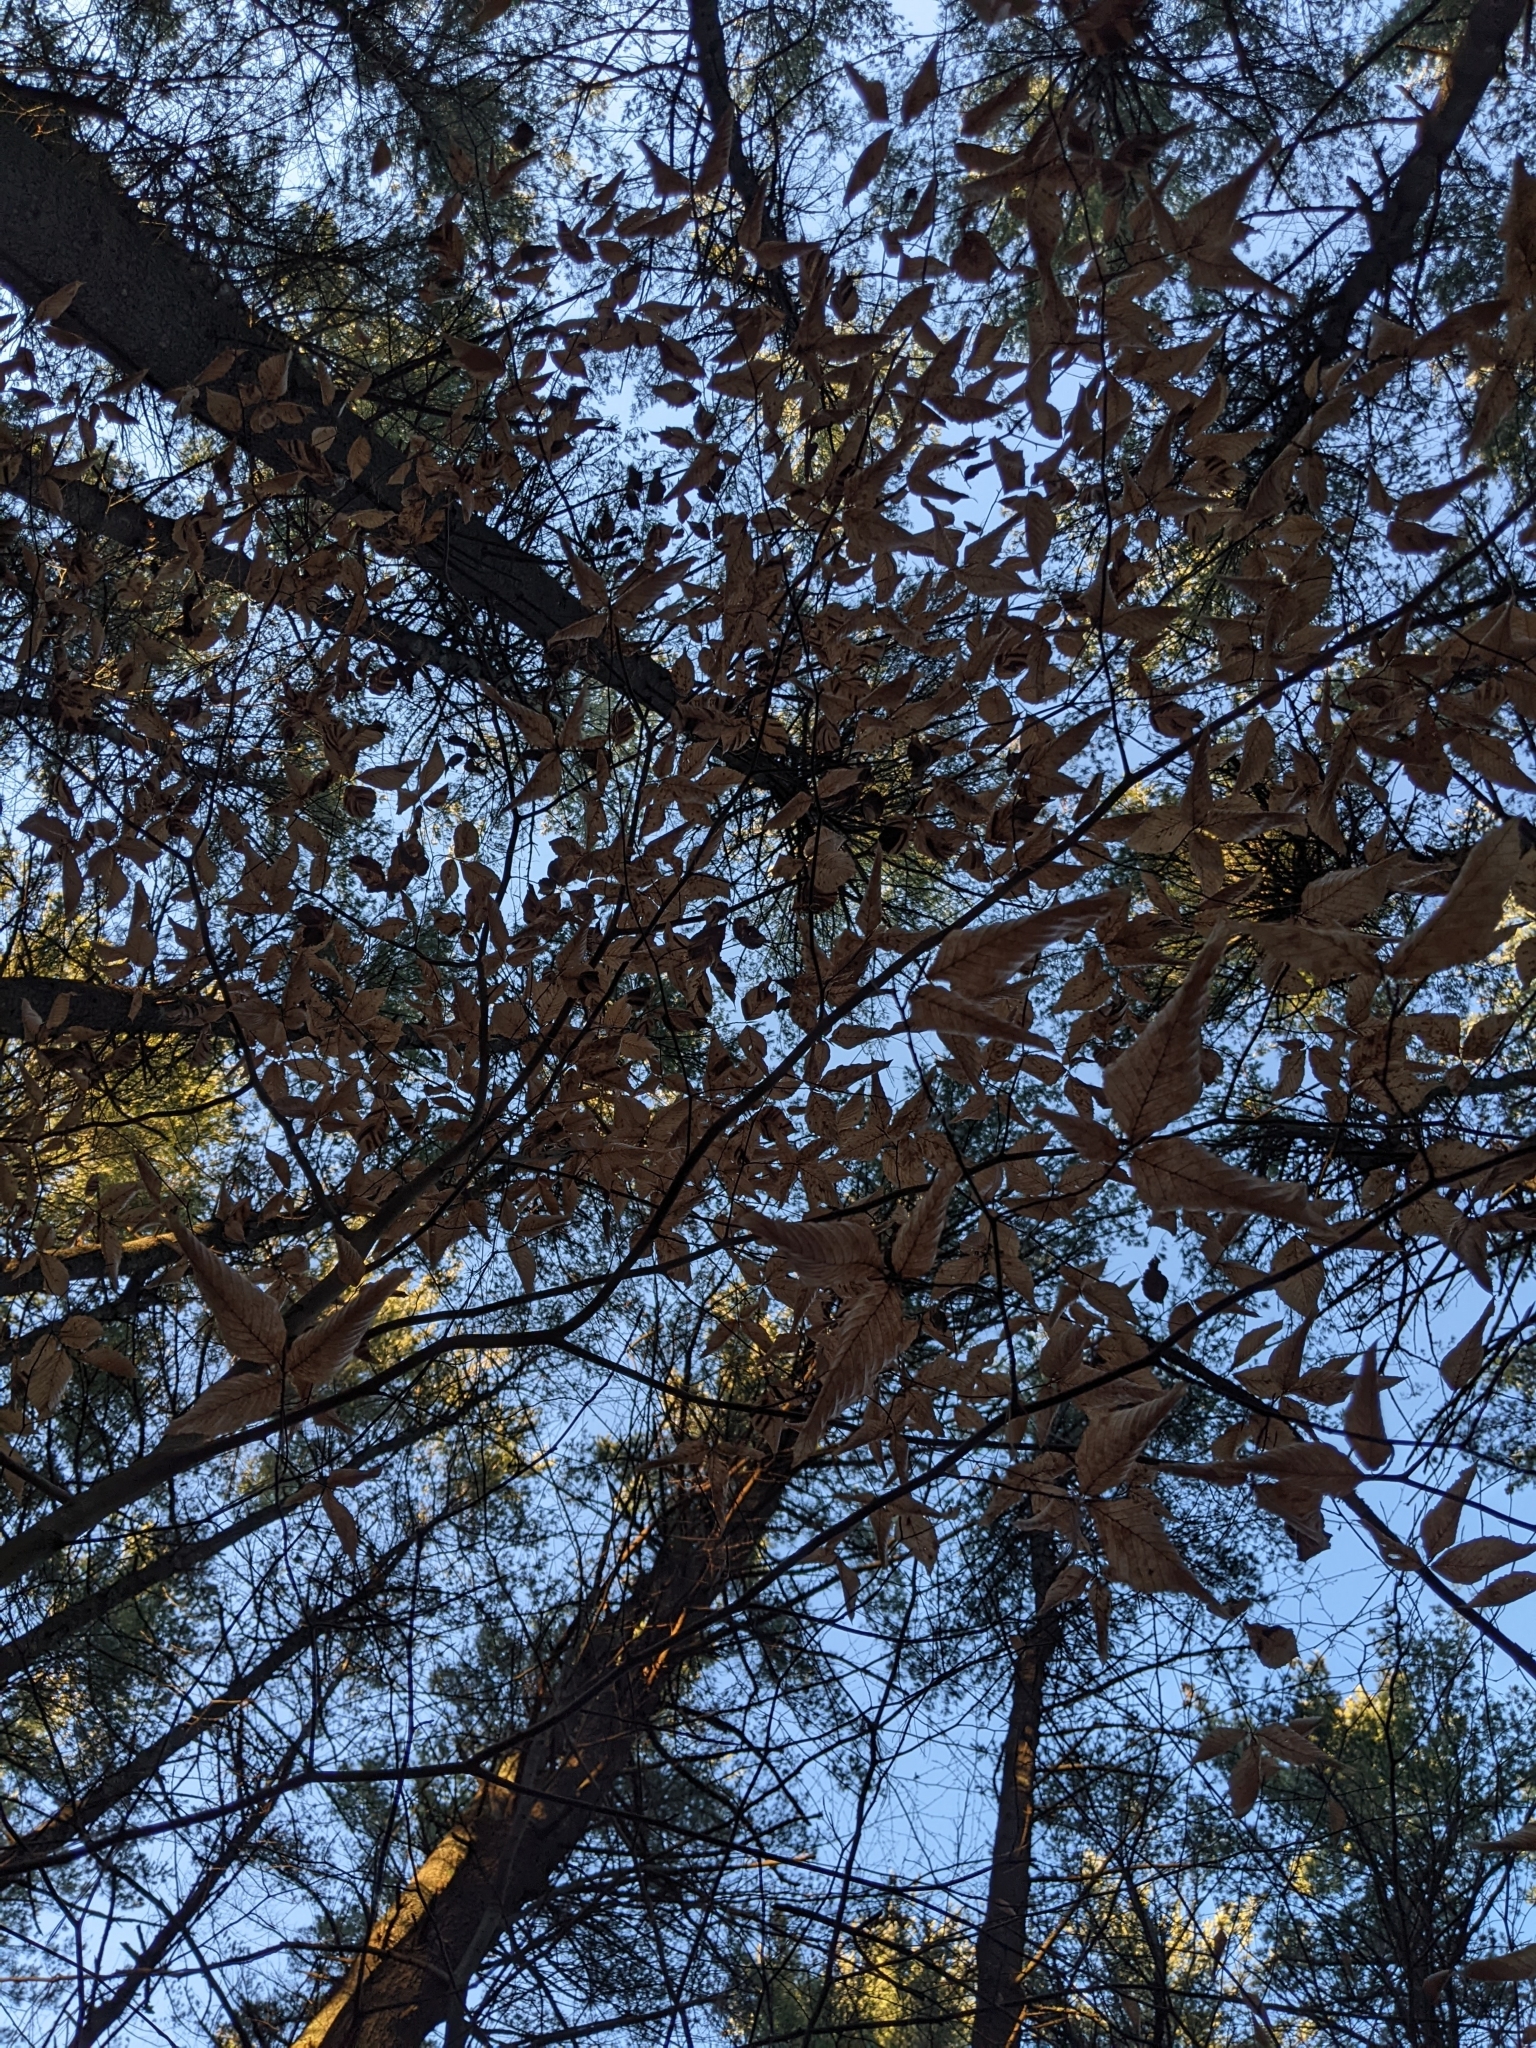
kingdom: Animalia
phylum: Nematoda
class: Chromadorea
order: Rhabditida
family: Anguinidae
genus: Litylenchus
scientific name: Litylenchus crenatae
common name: Beech leaf disease
